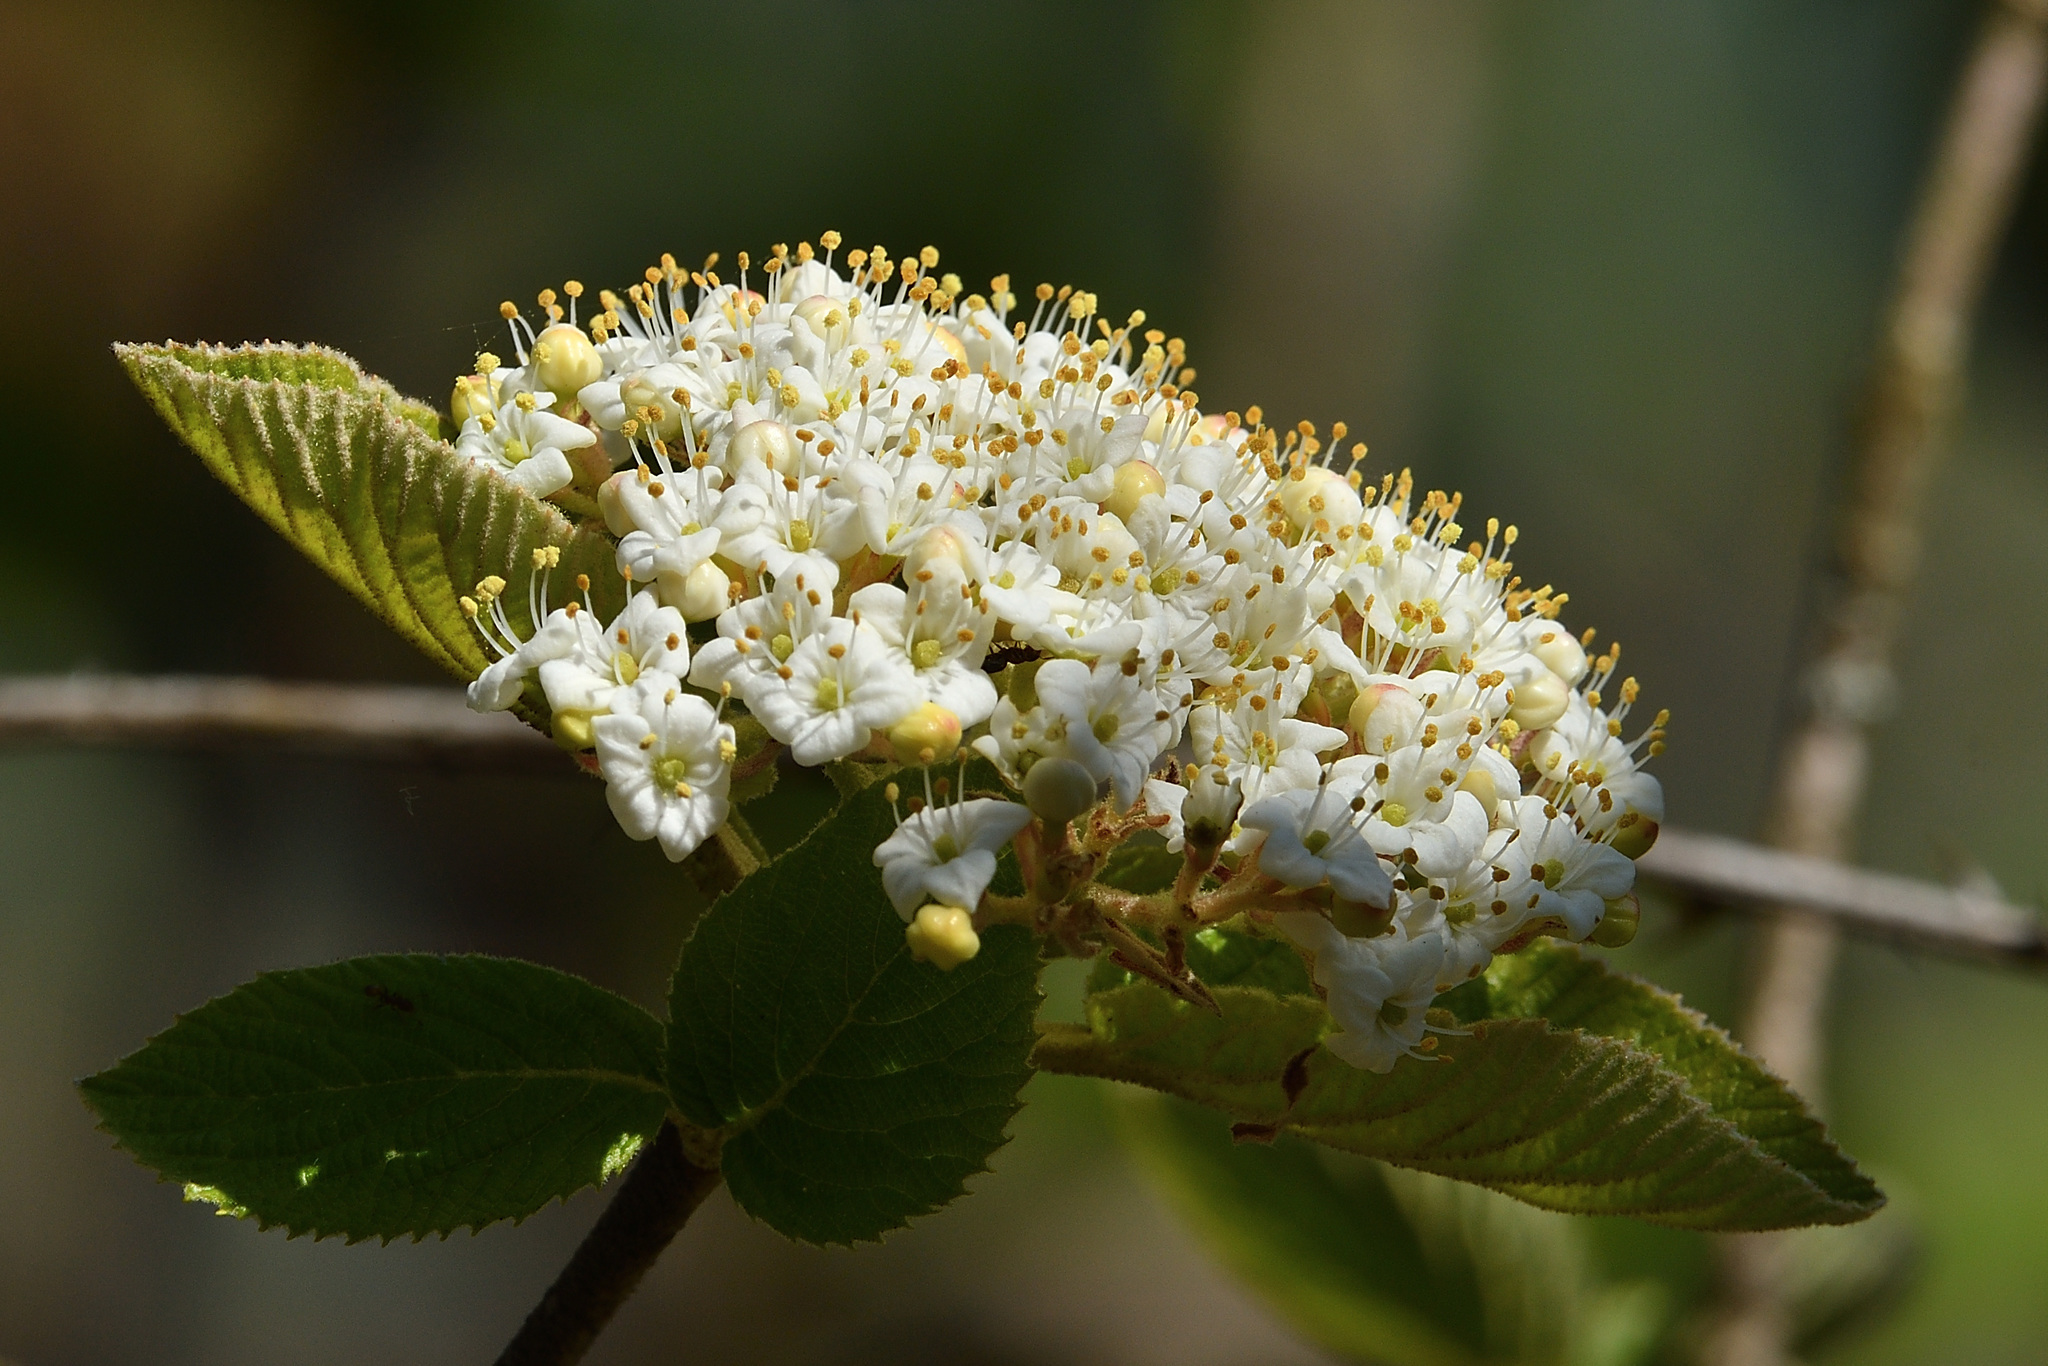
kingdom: Plantae
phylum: Tracheophyta
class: Magnoliopsida
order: Dipsacales
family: Viburnaceae
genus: Viburnum
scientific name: Viburnum lantana
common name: Wayfaring tree
